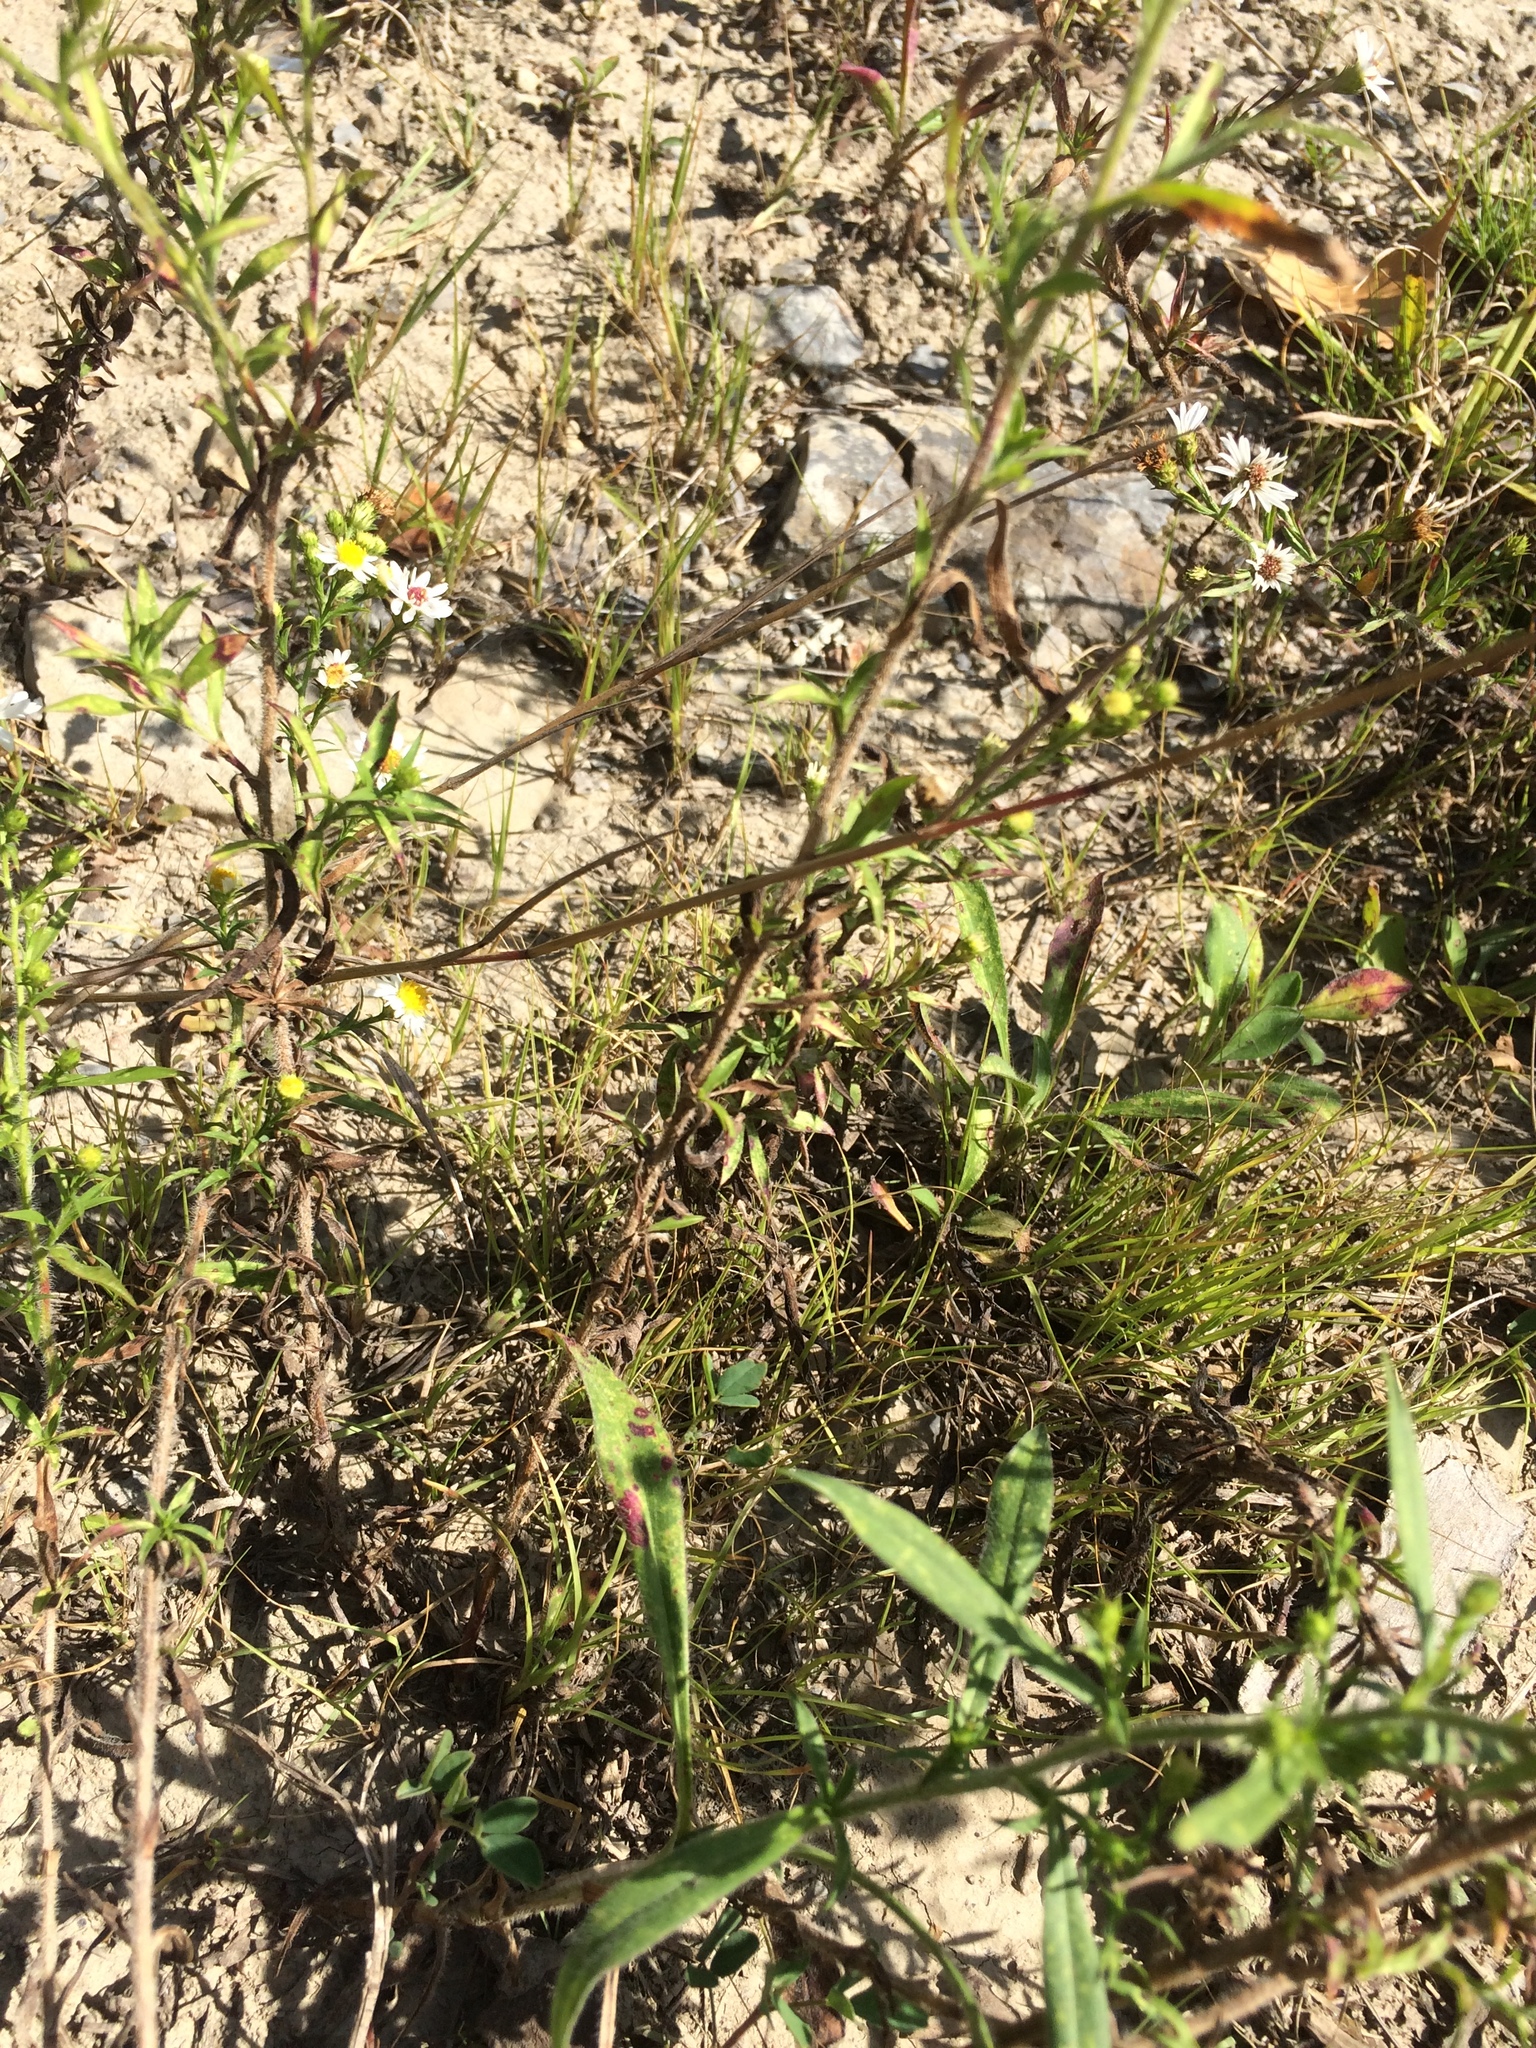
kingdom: Plantae
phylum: Tracheophyta
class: Magnoliopsida
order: Asterales
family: Asteraceae
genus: Symphyotrichum
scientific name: Symphyotrichum pilosum
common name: Awl aster
